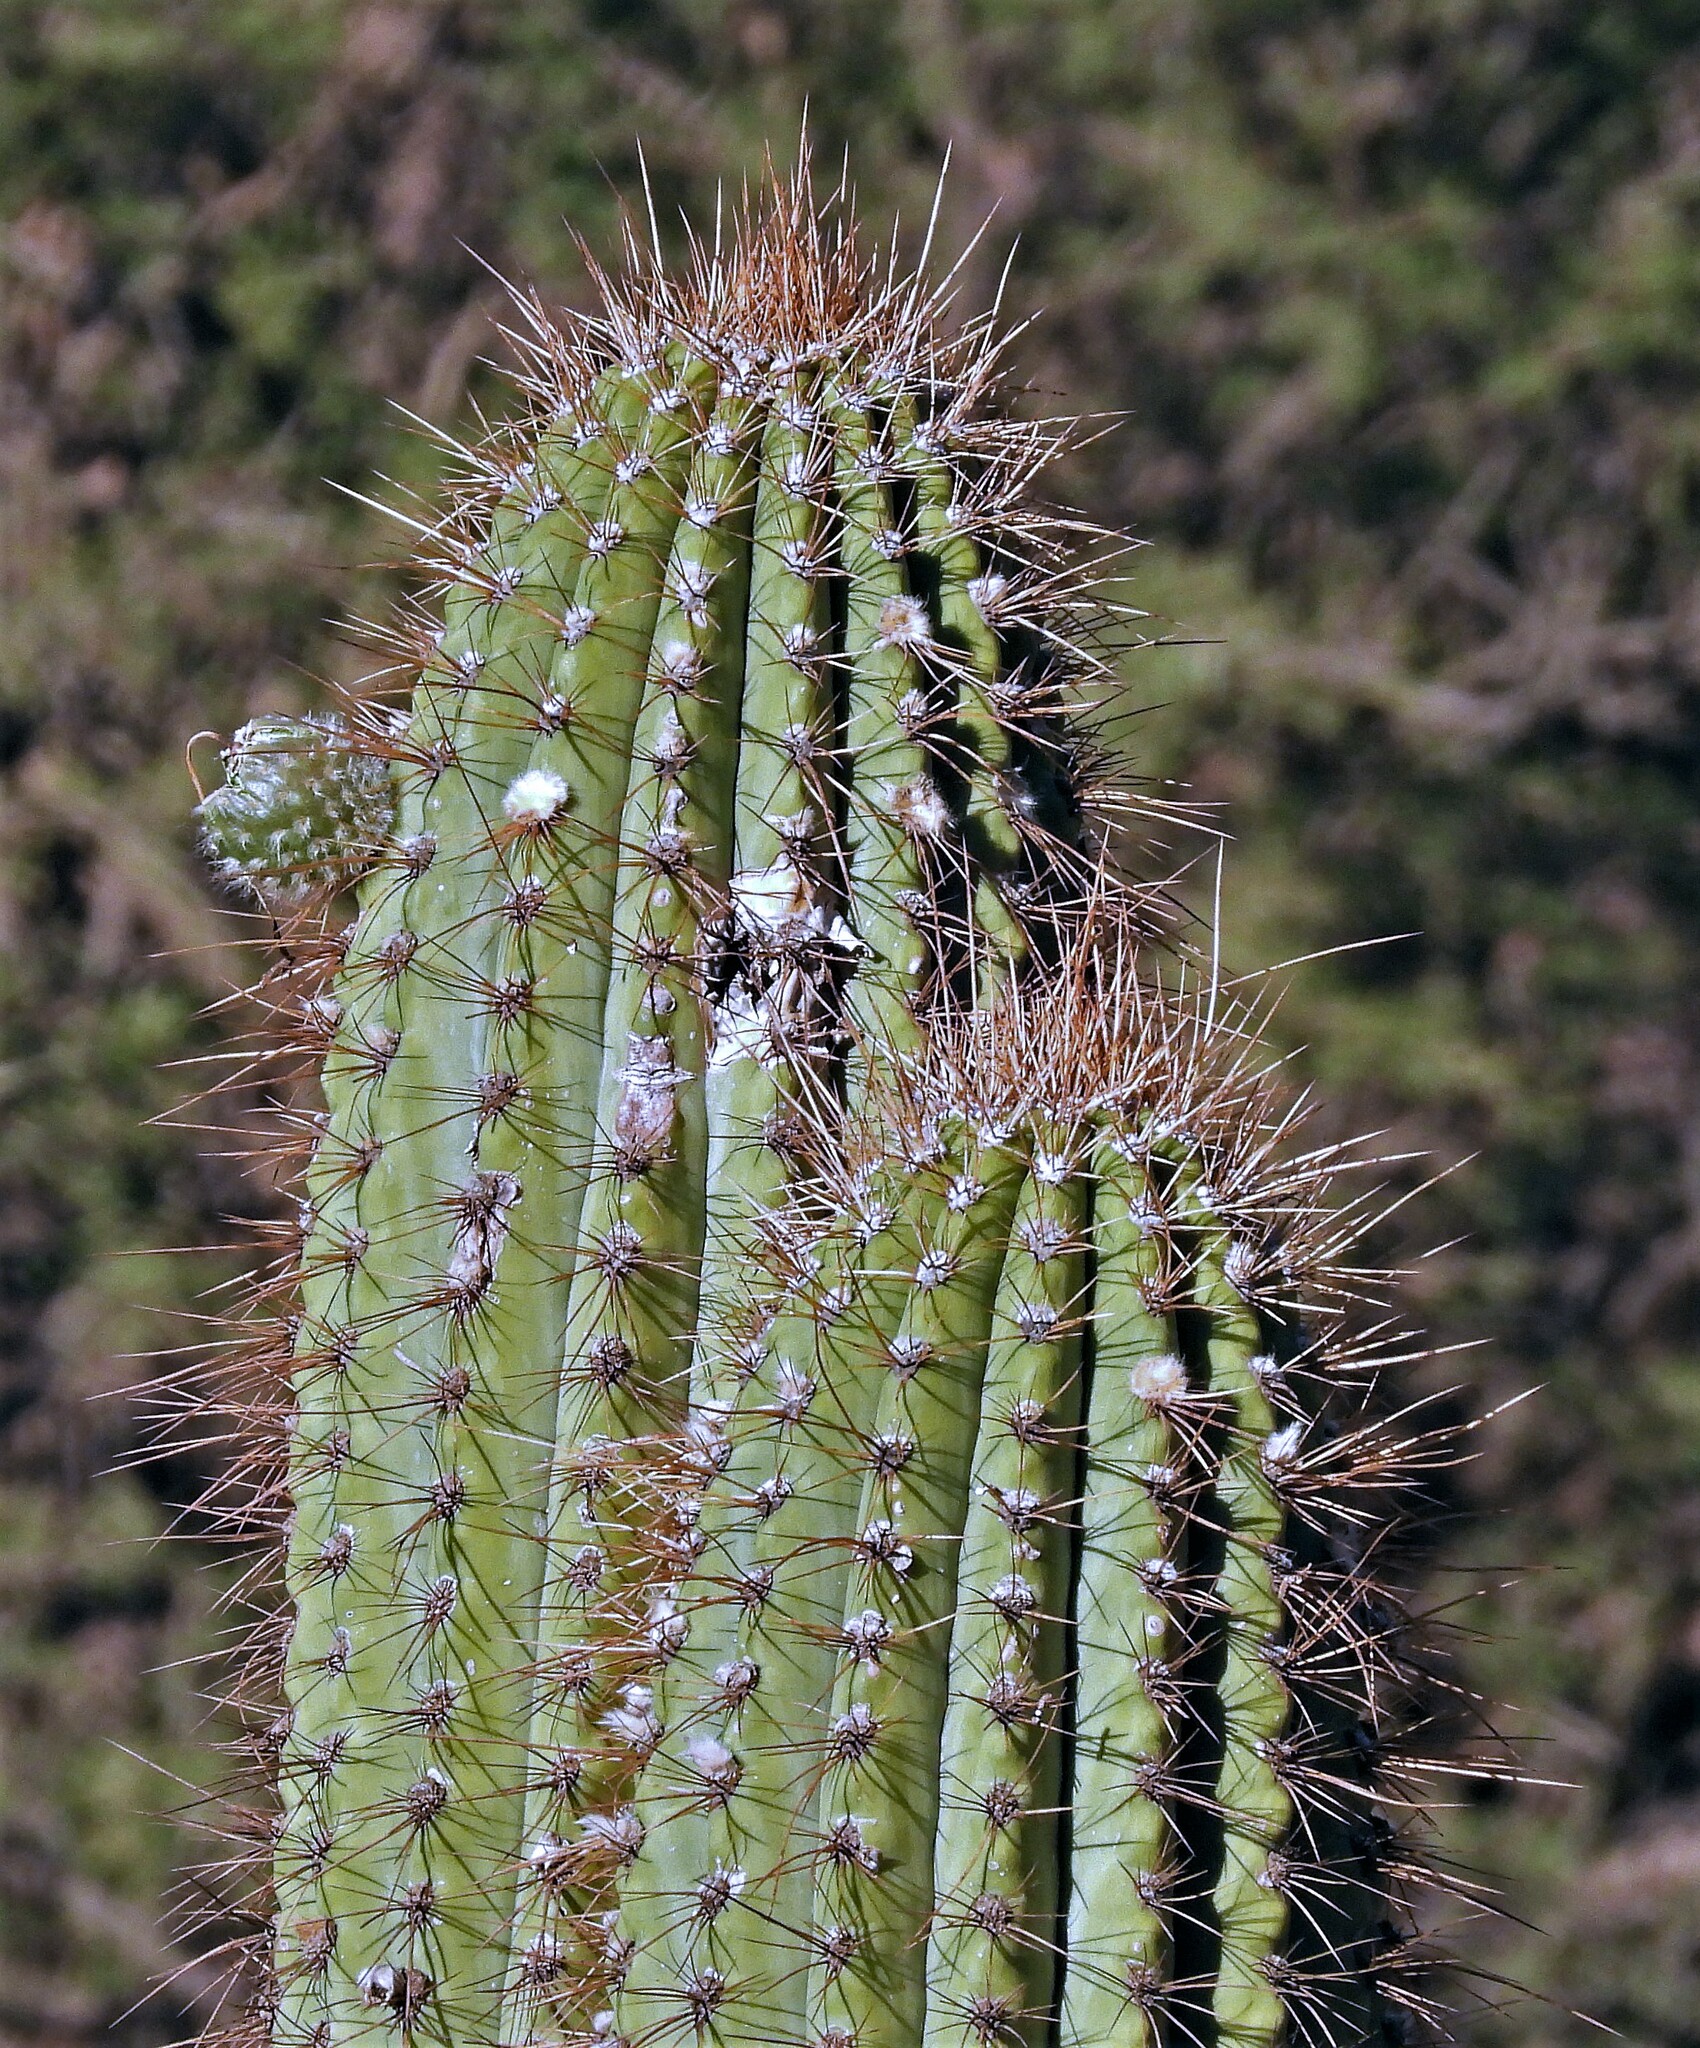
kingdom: Plantae
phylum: Tracheophyta
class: Magnoliopsida
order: Caryophyllales
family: Cactaceae
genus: Leucostele
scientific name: Leucostele terscheckii
